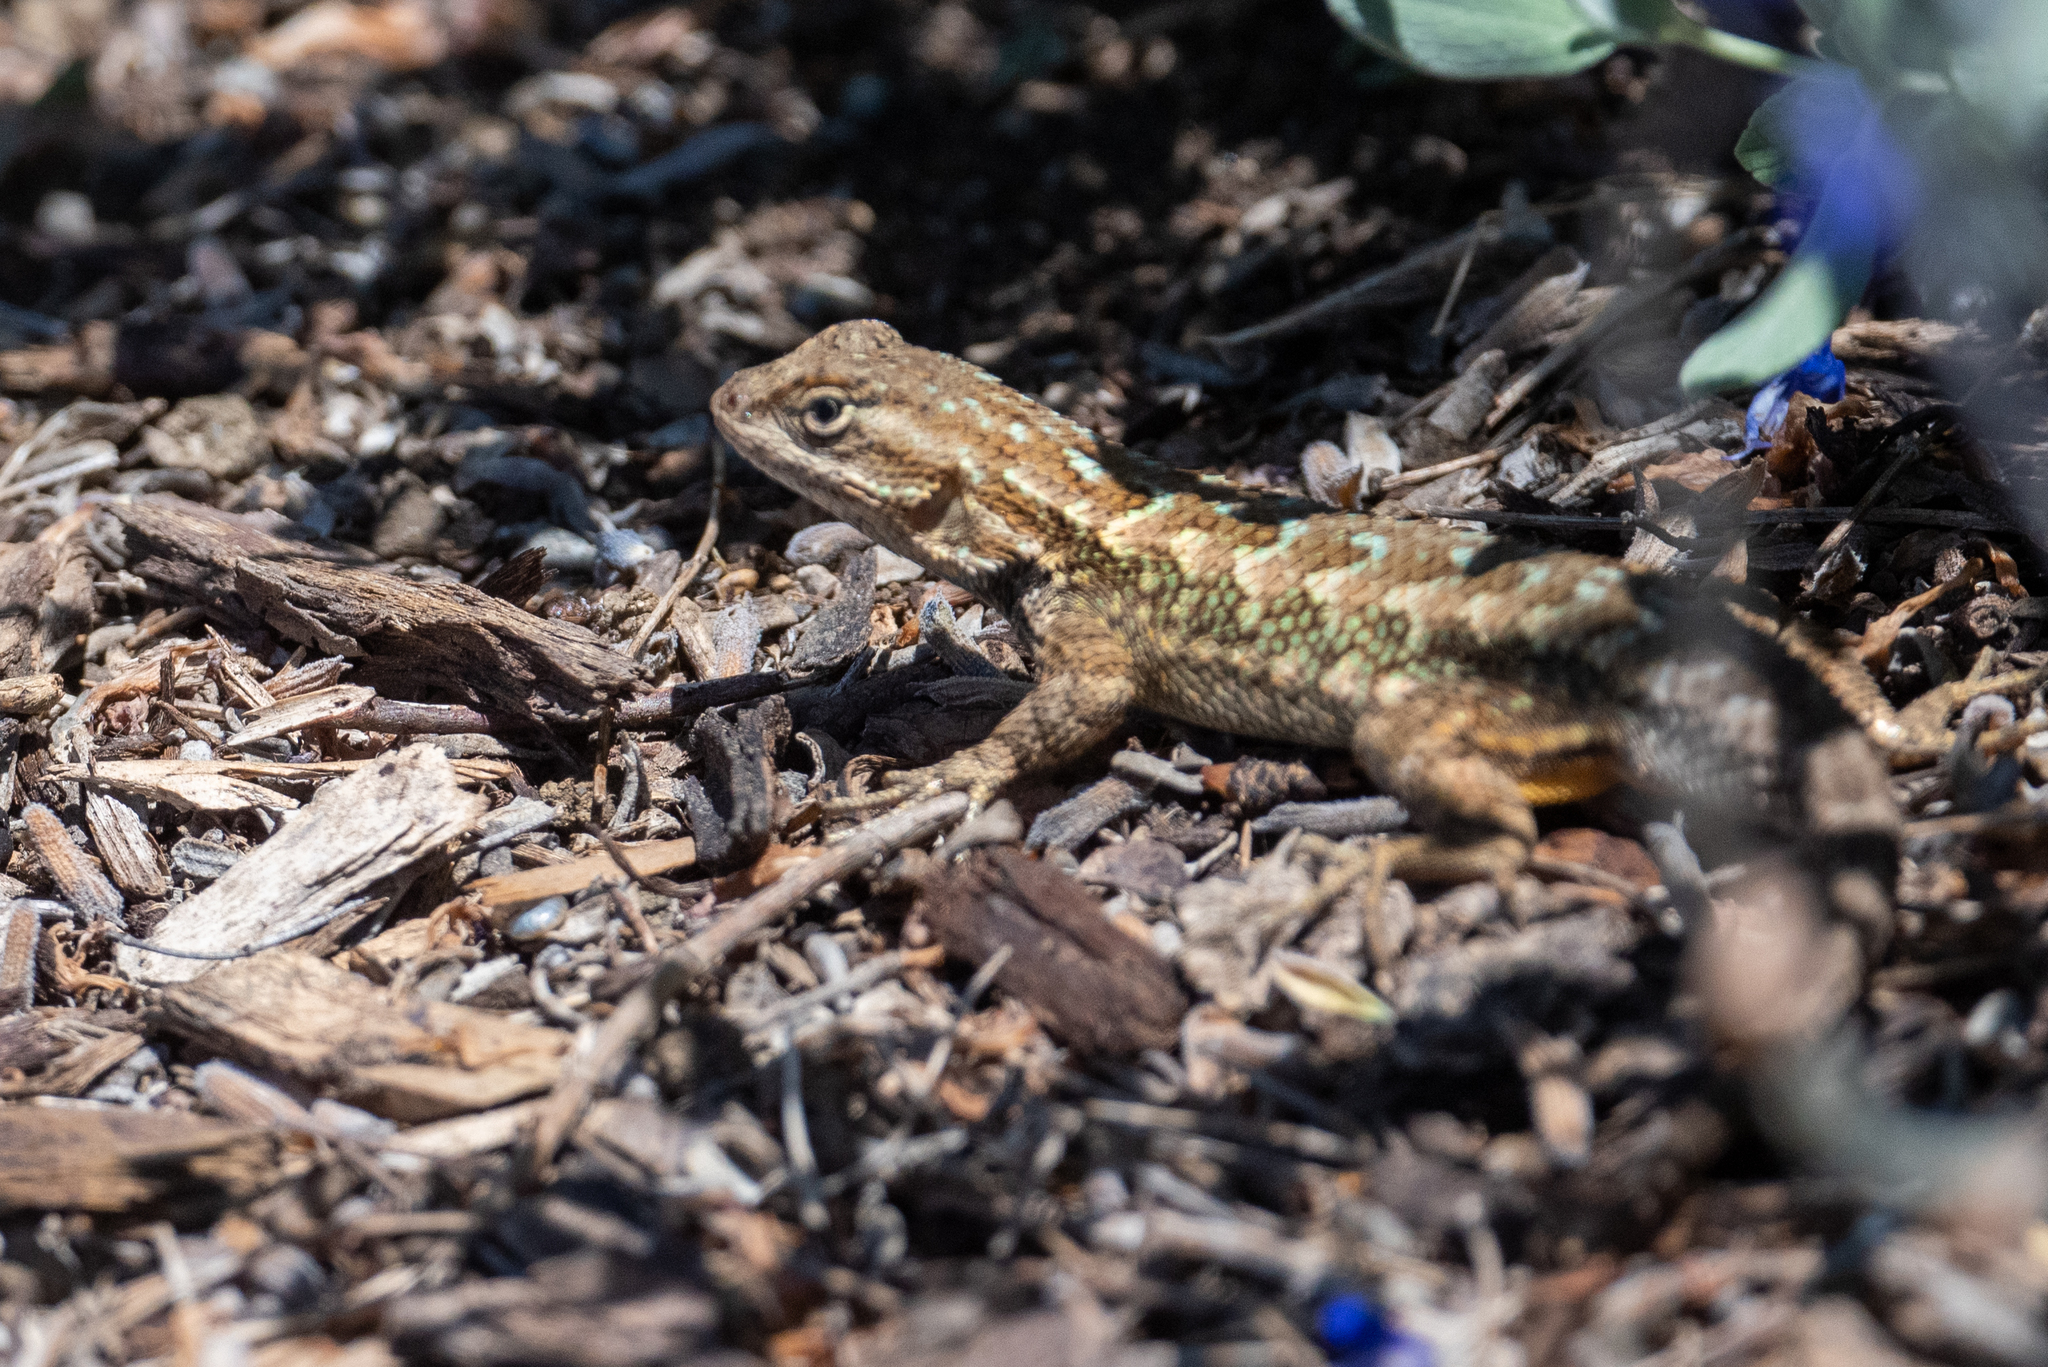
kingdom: Animalia
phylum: Chordata
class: Squamata
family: Phrynosomatidae
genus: Sceloporus
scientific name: Sceloporus occidentalis
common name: Western fence lizard
